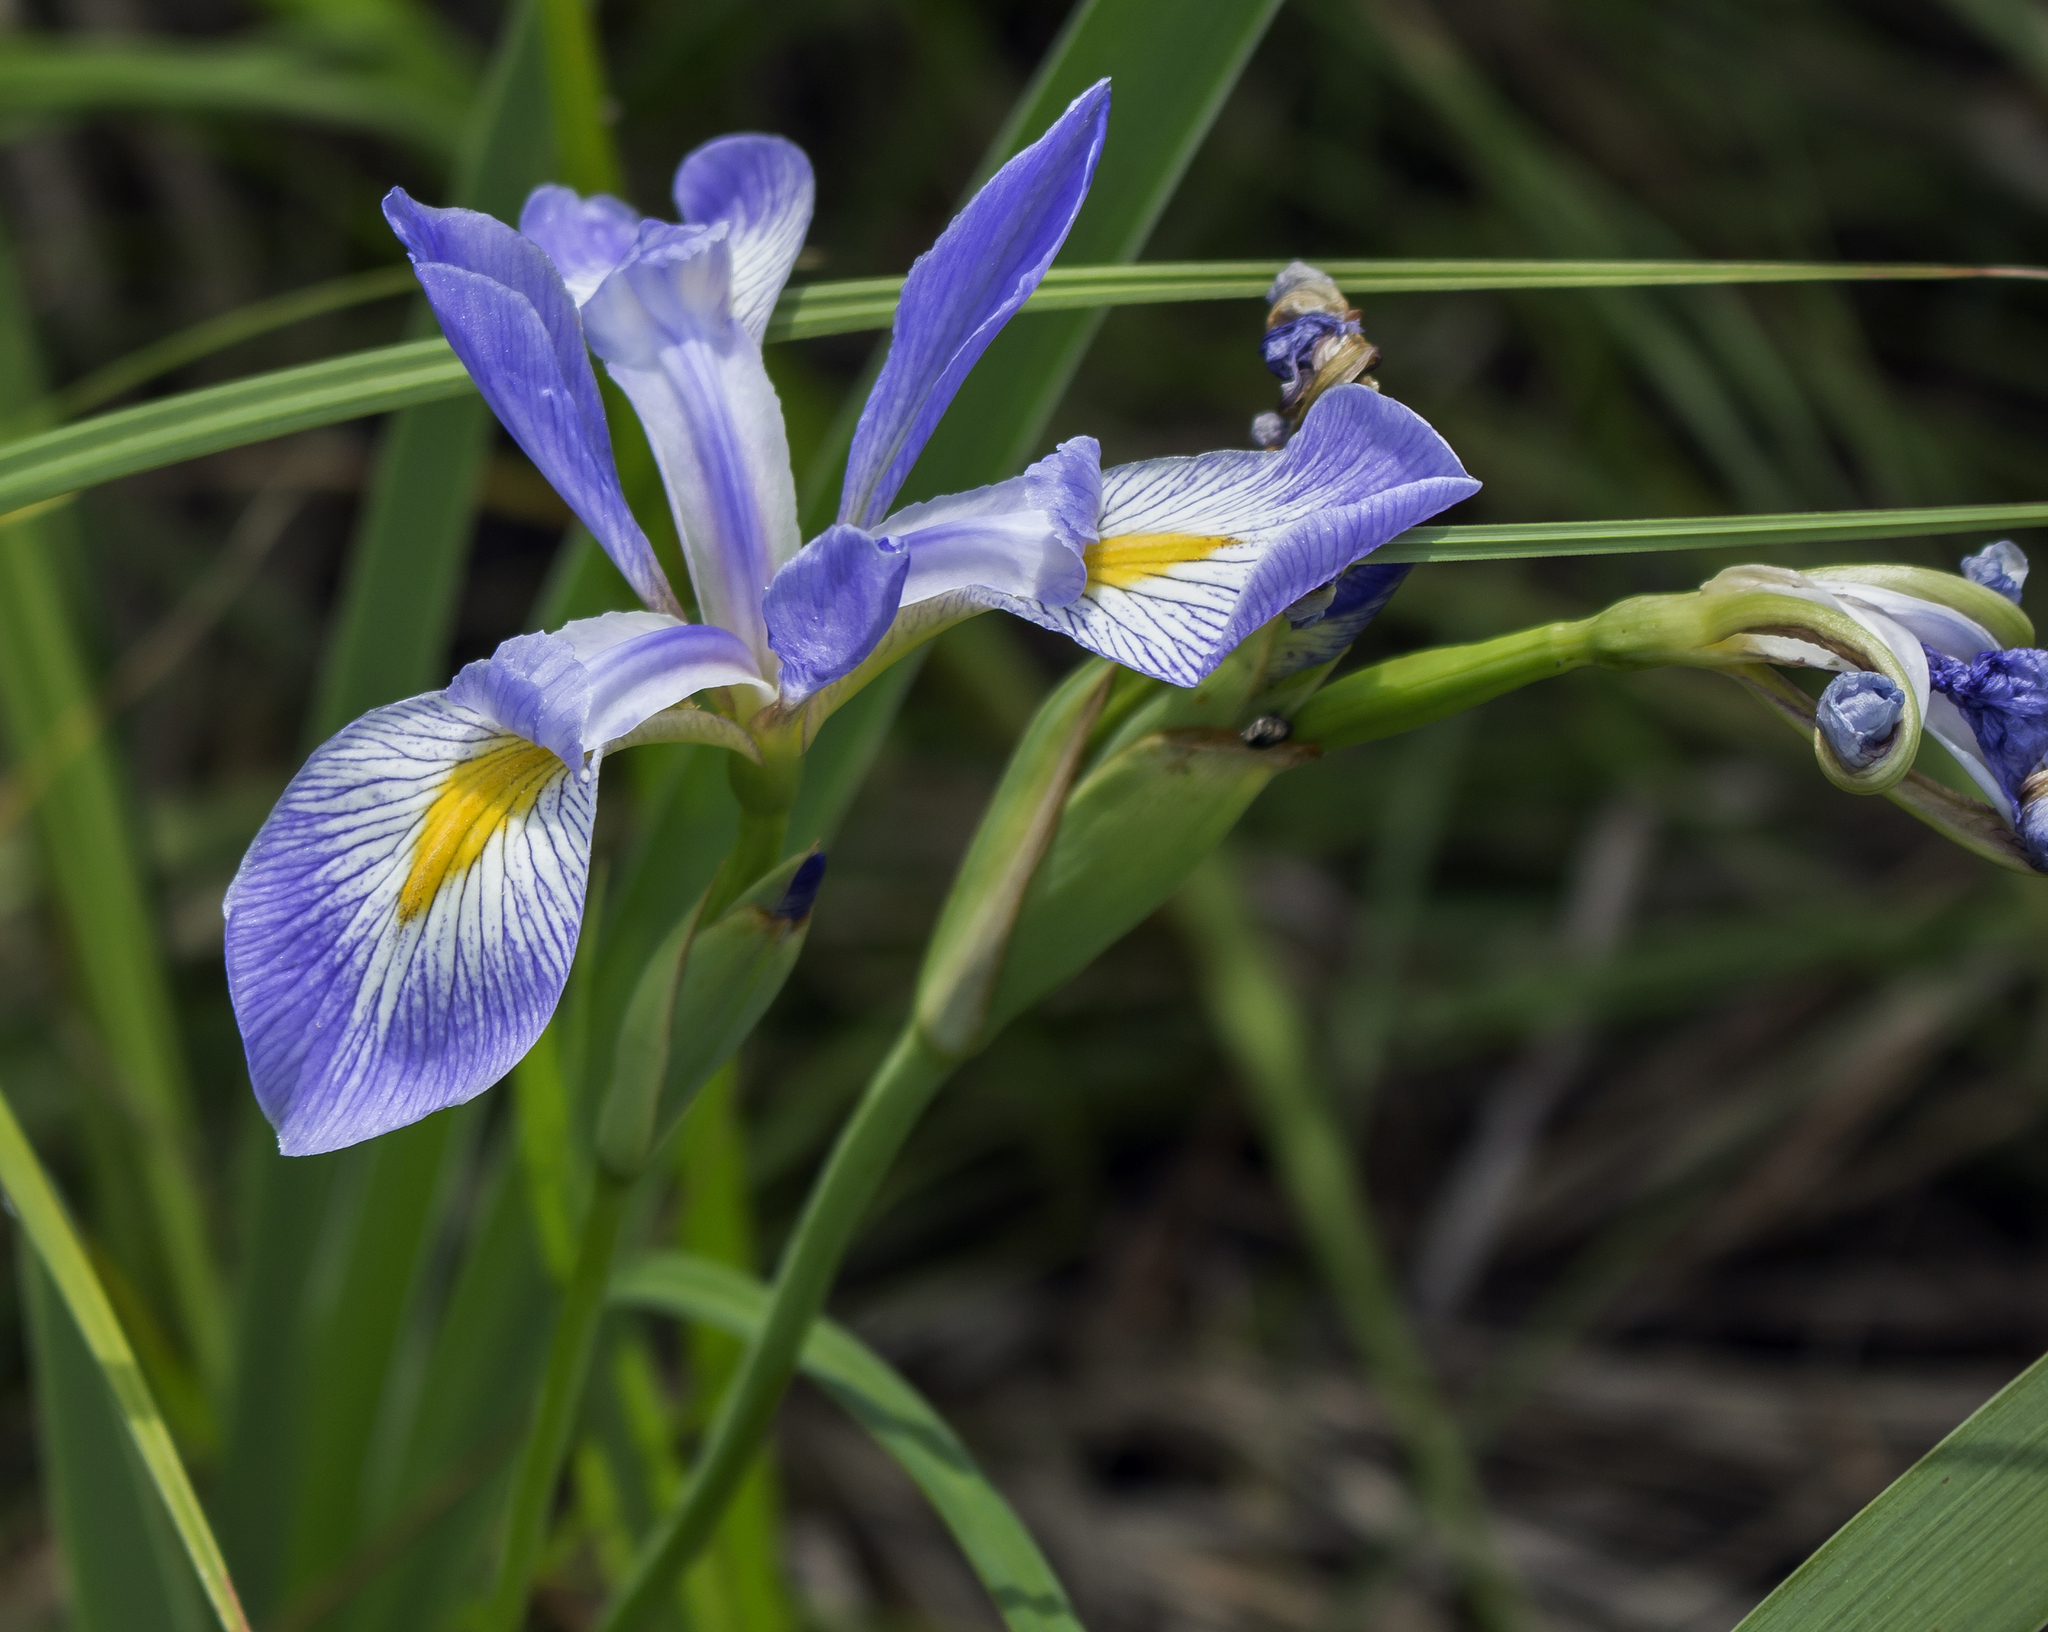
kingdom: Plantae
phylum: Tracheophyta
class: Liliopsida
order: Asparagales
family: Iridaceae
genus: Iris
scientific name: Iris virginica
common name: Southern blue flag
